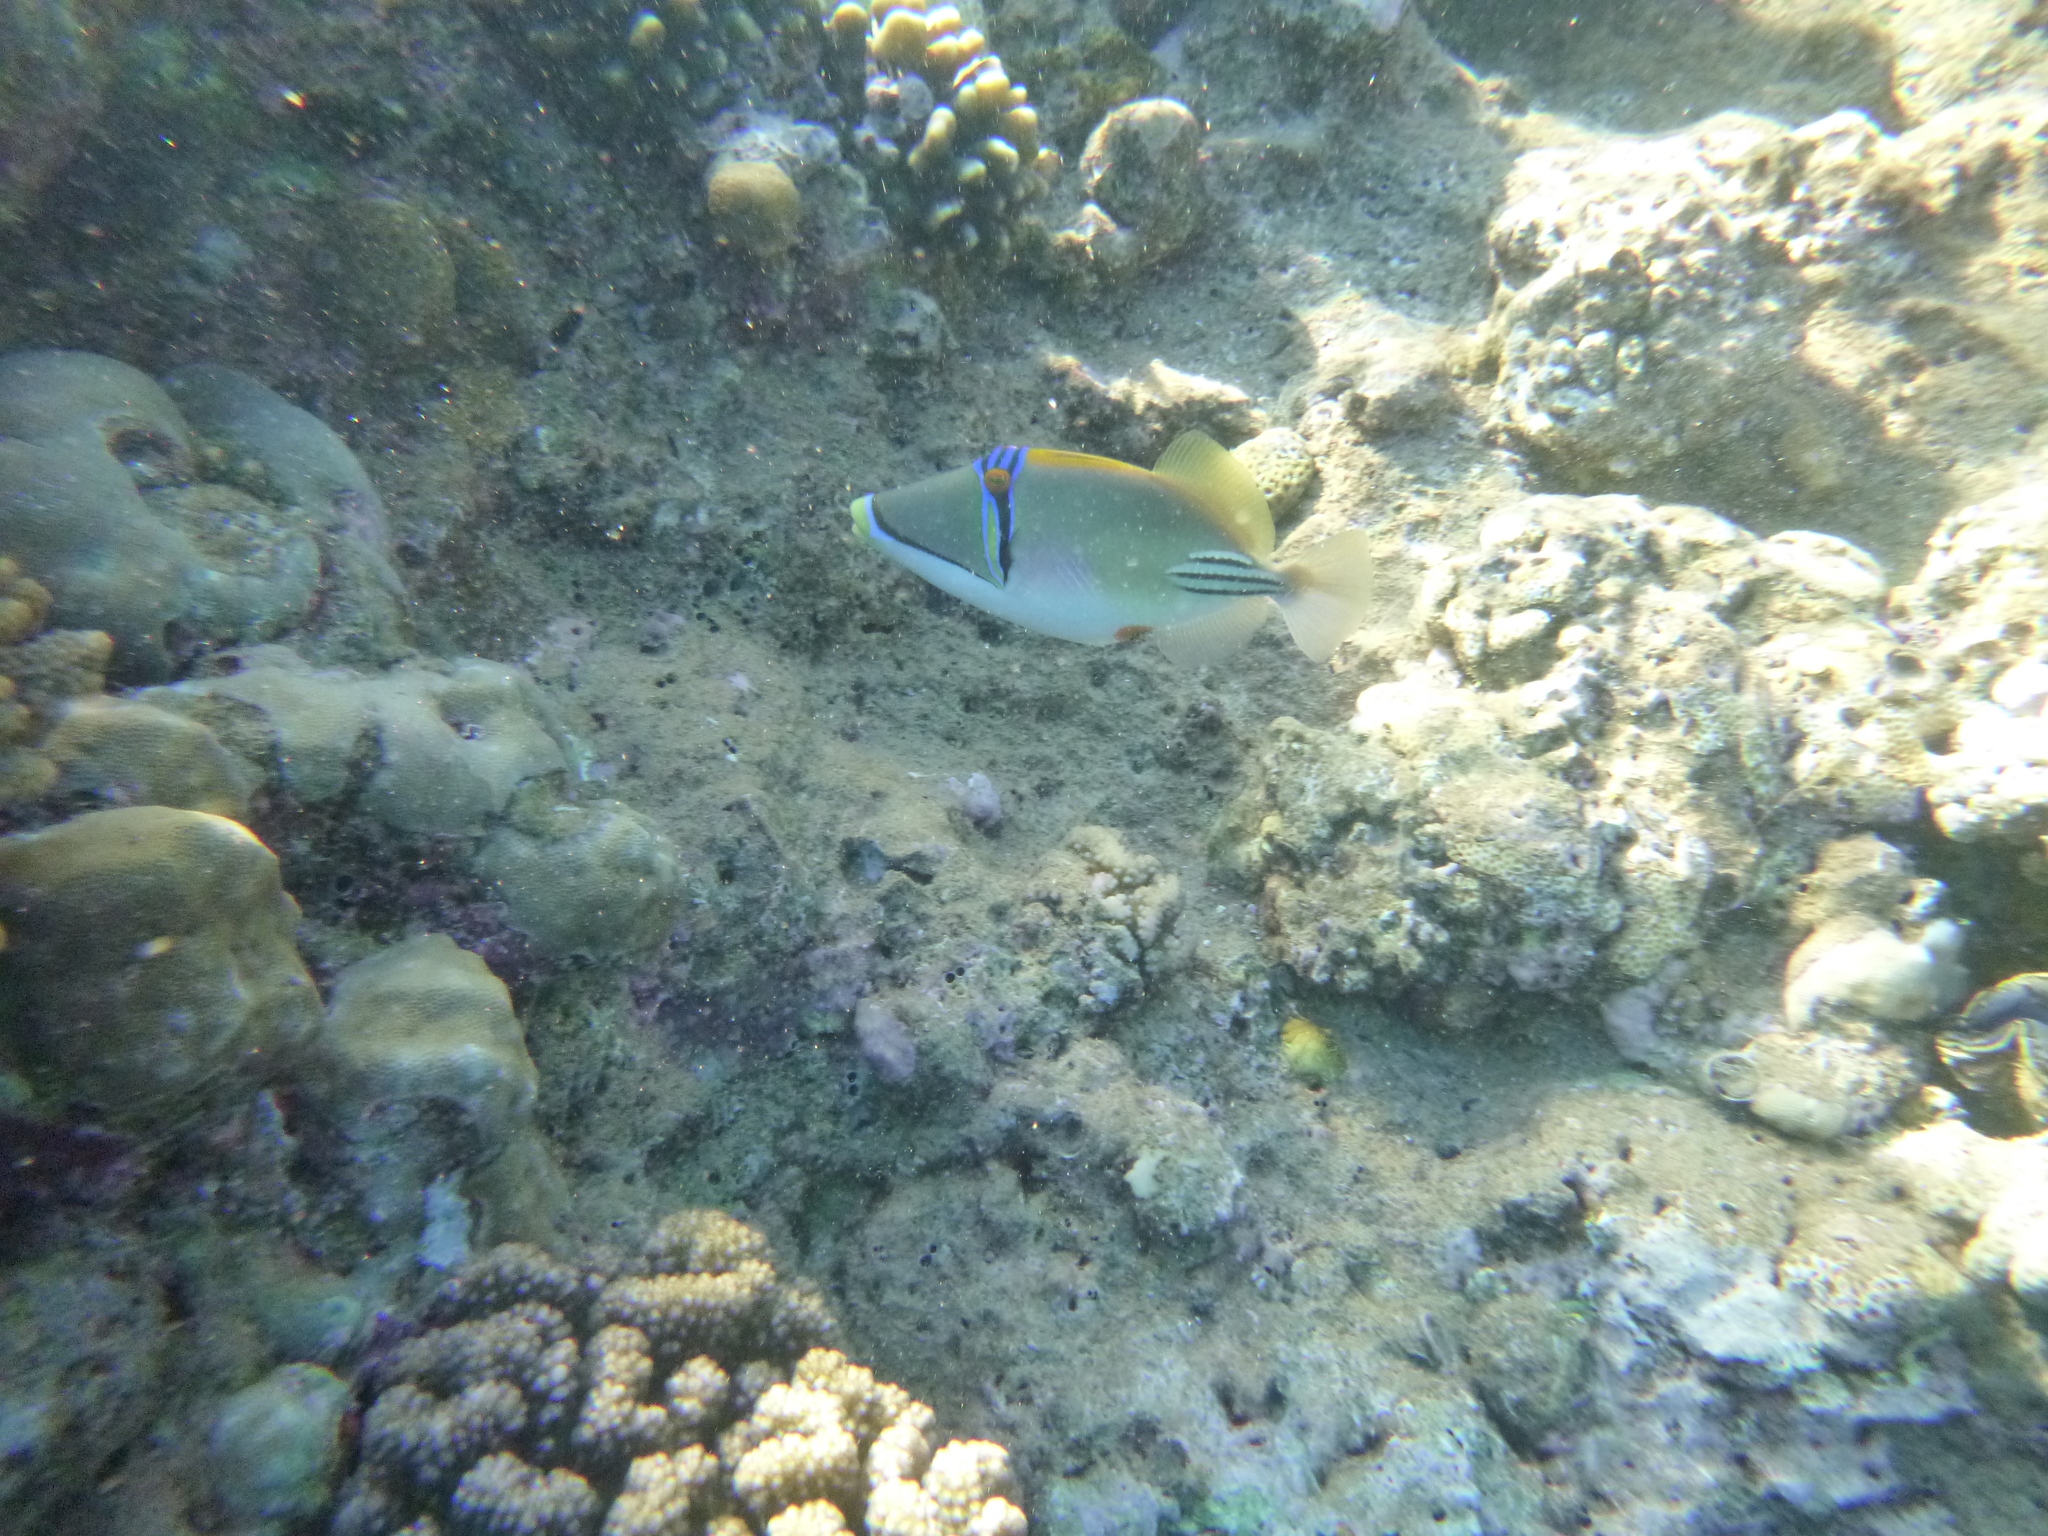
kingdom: Animalia
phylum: Chordata
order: Tetraodontiformes
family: Balistidae
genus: Rhinecanthus
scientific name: Rhinecanthus assasi
